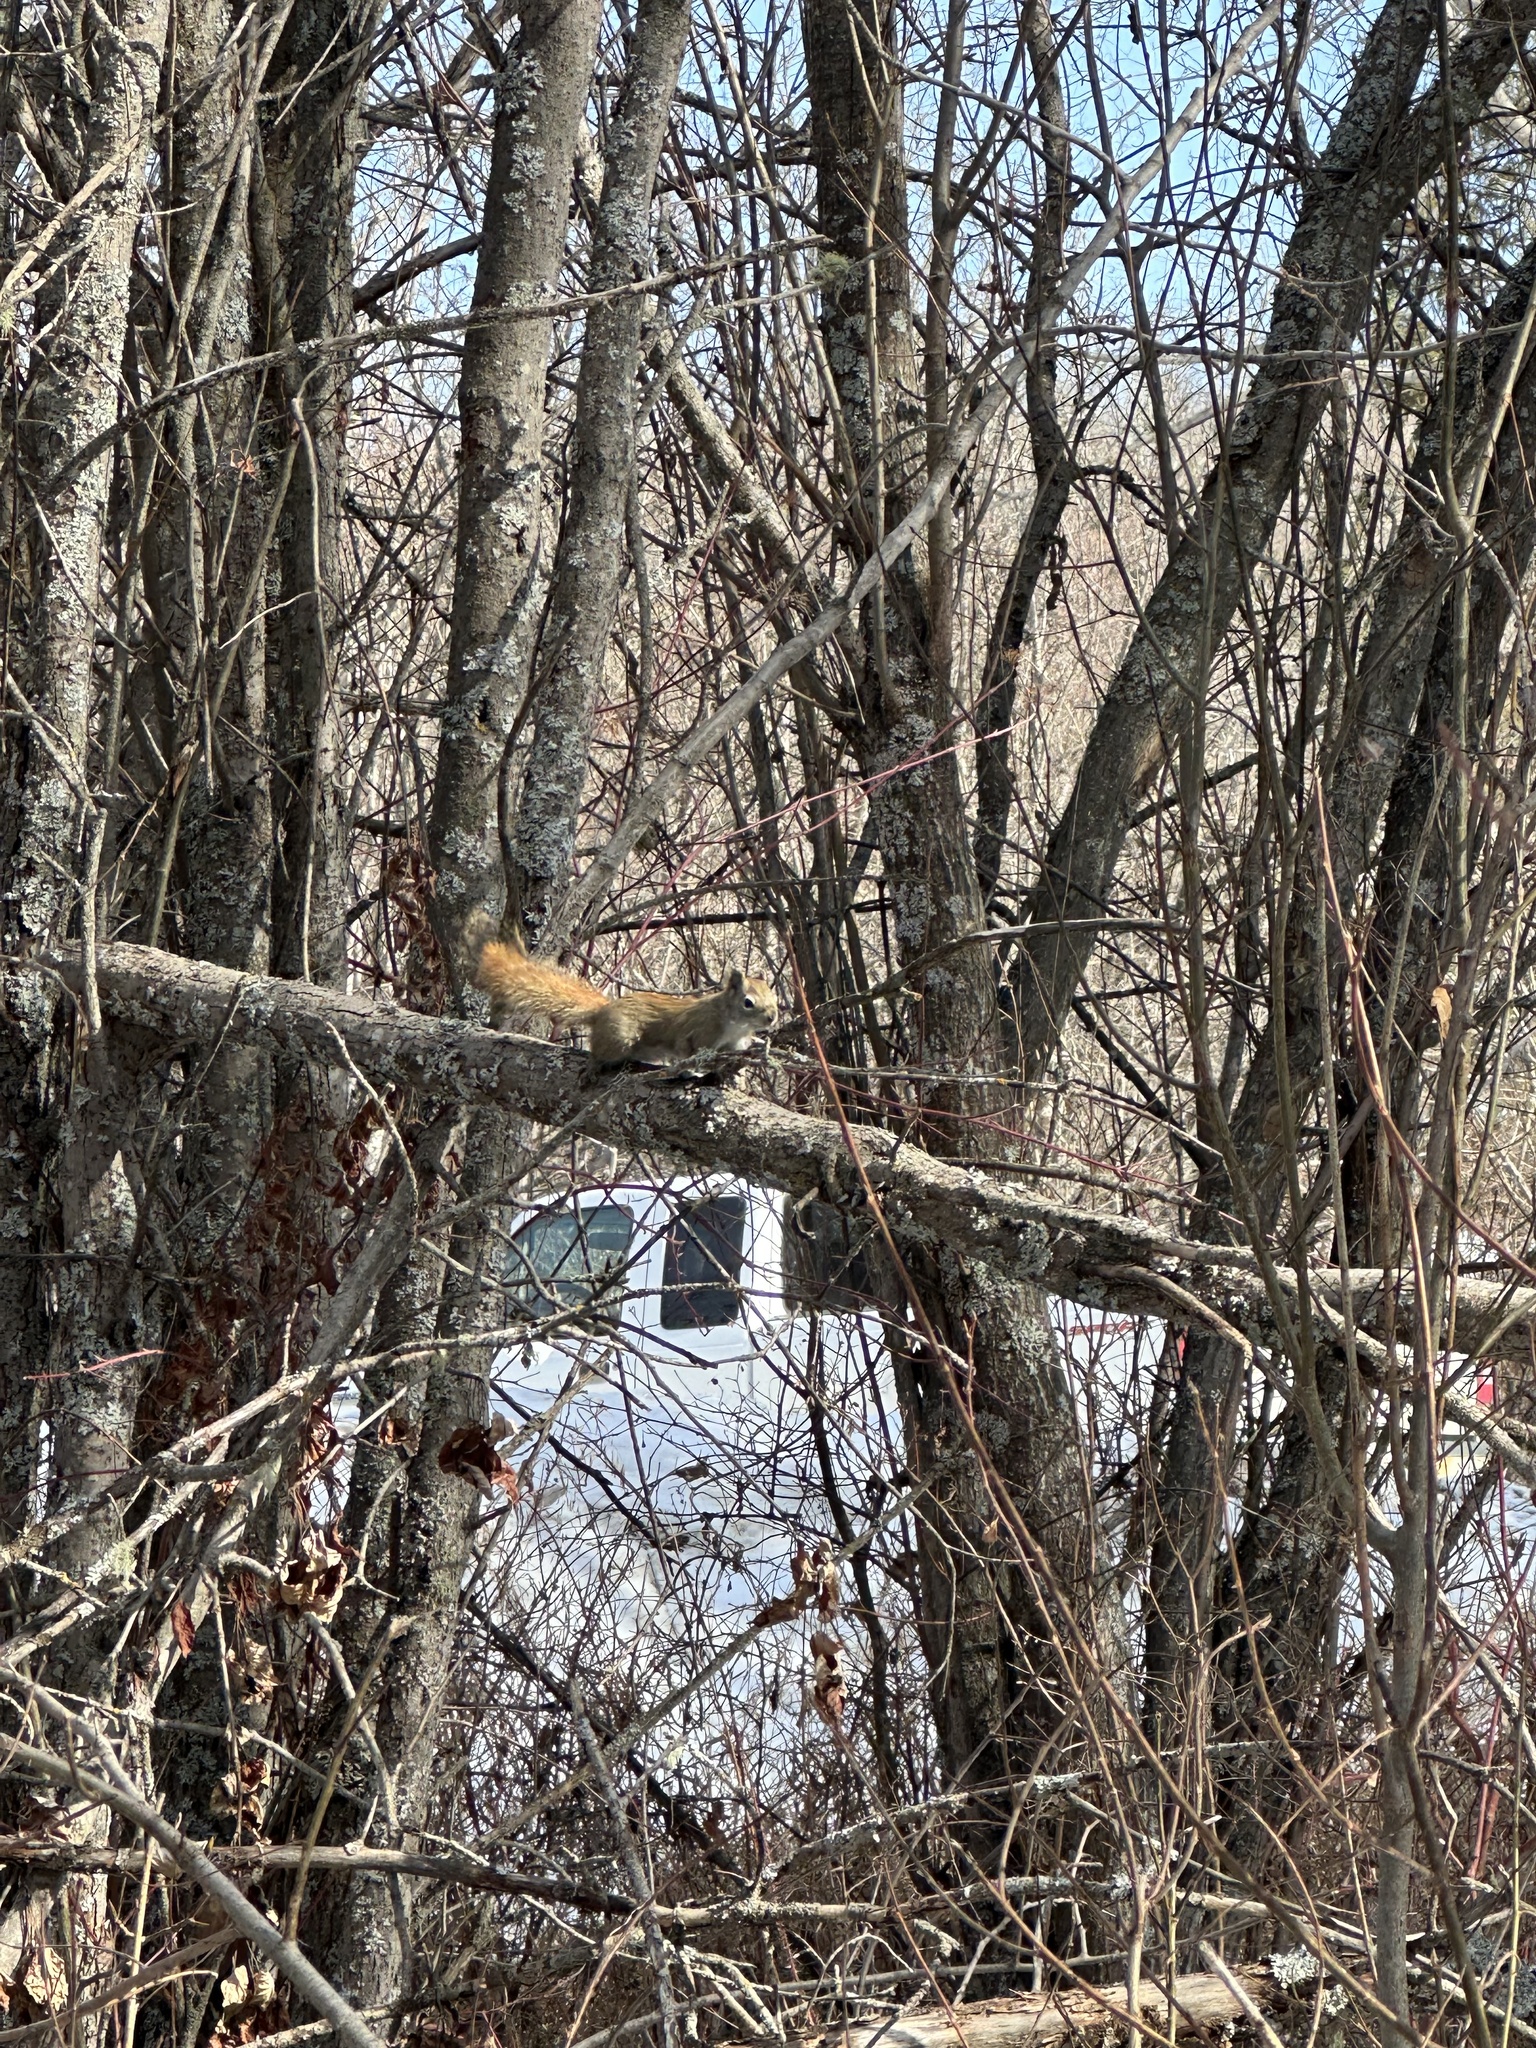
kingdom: Animalia
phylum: Chordata
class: Mammalia
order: Rodentia
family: Sciuridae
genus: Tamiasciurus
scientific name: Tamiasciurus hudsonicus
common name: Red squirrel
